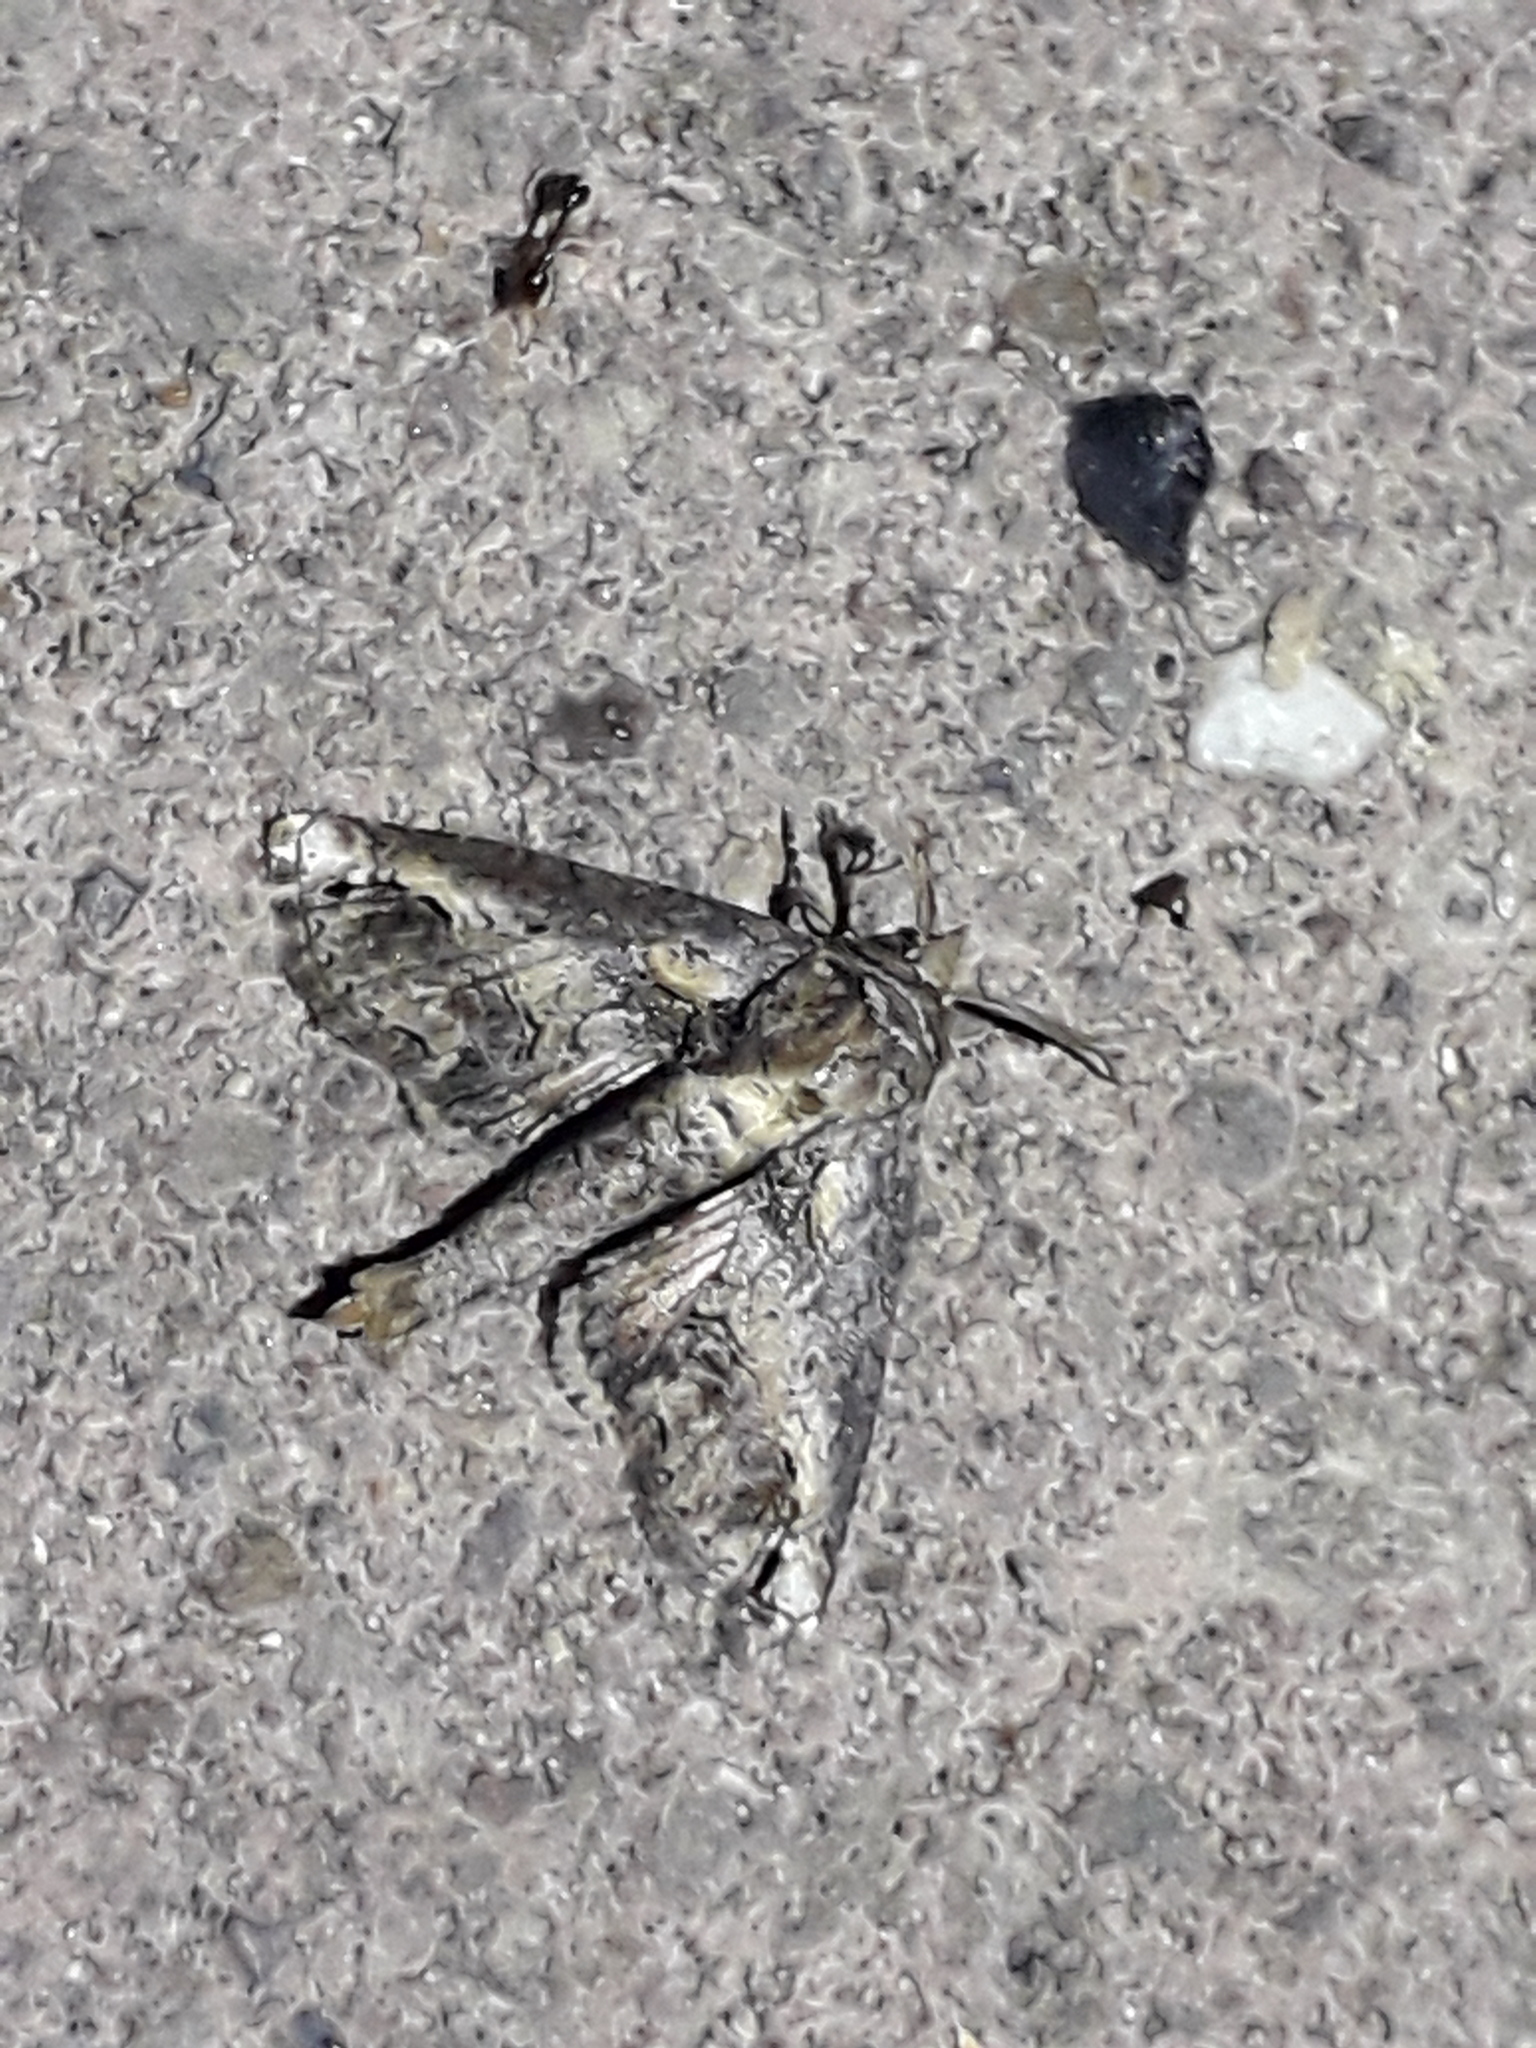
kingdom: Animalia
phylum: Arthropoda
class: Insecta
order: Lepidoptera
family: Euteliidae
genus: Paectes
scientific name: Paectes abrostoloides
